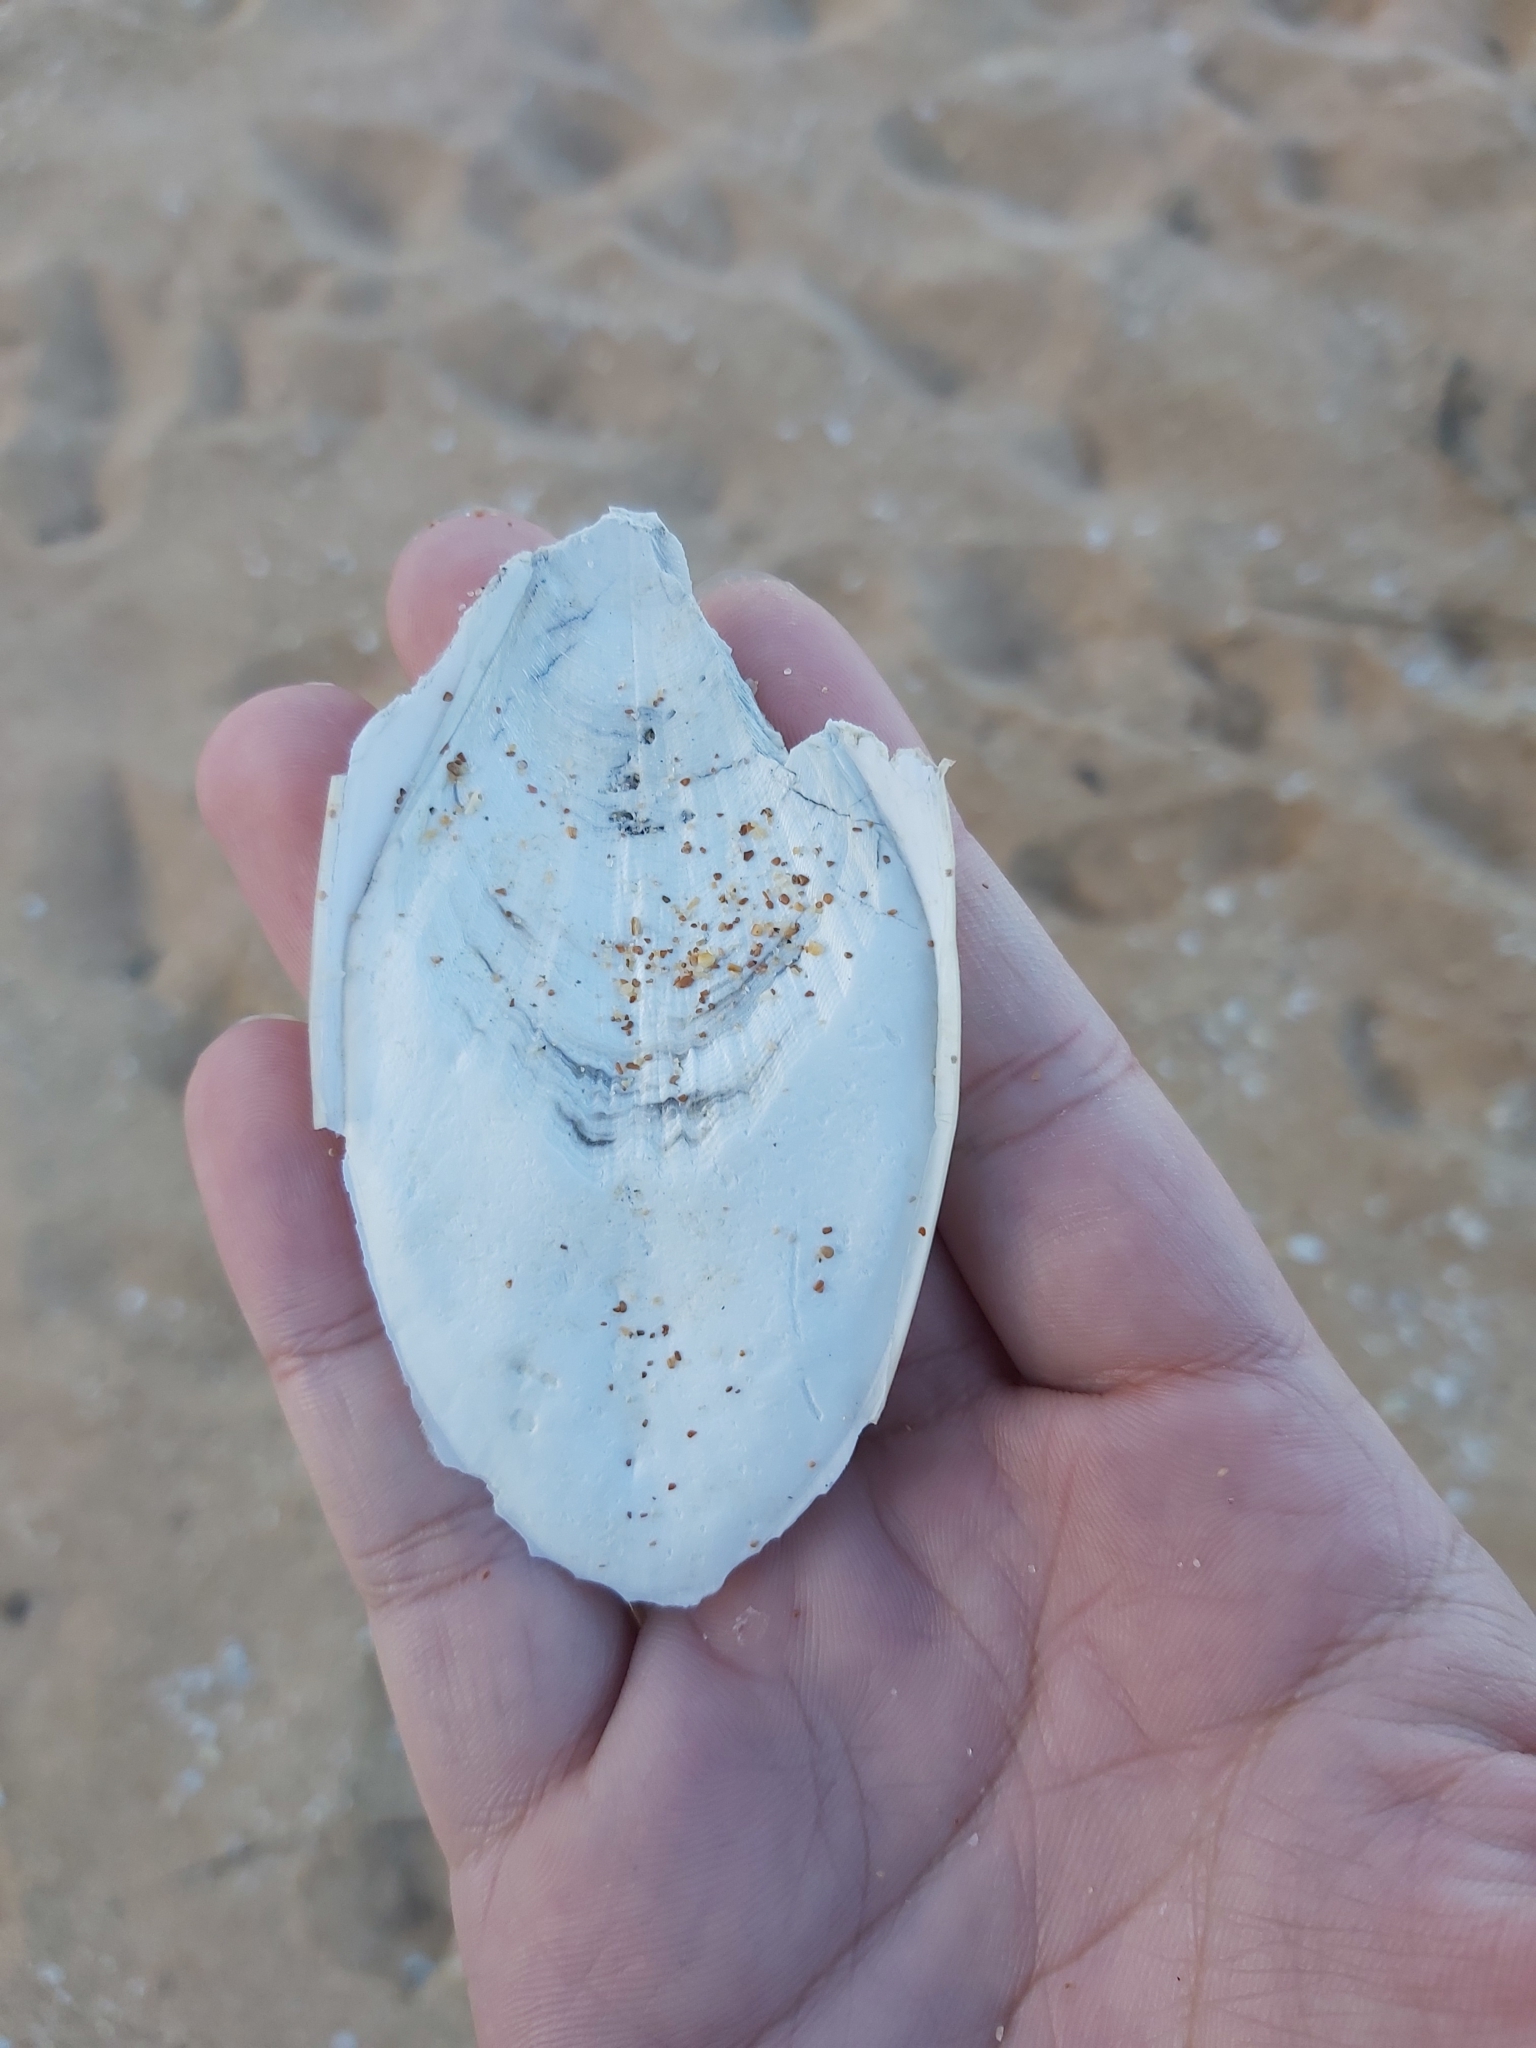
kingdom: Animalia
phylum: Mollusca
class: Cephalopoda
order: Sepiida
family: Sepiidae
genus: Ascarosepion
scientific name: Ascarosepion mestus
